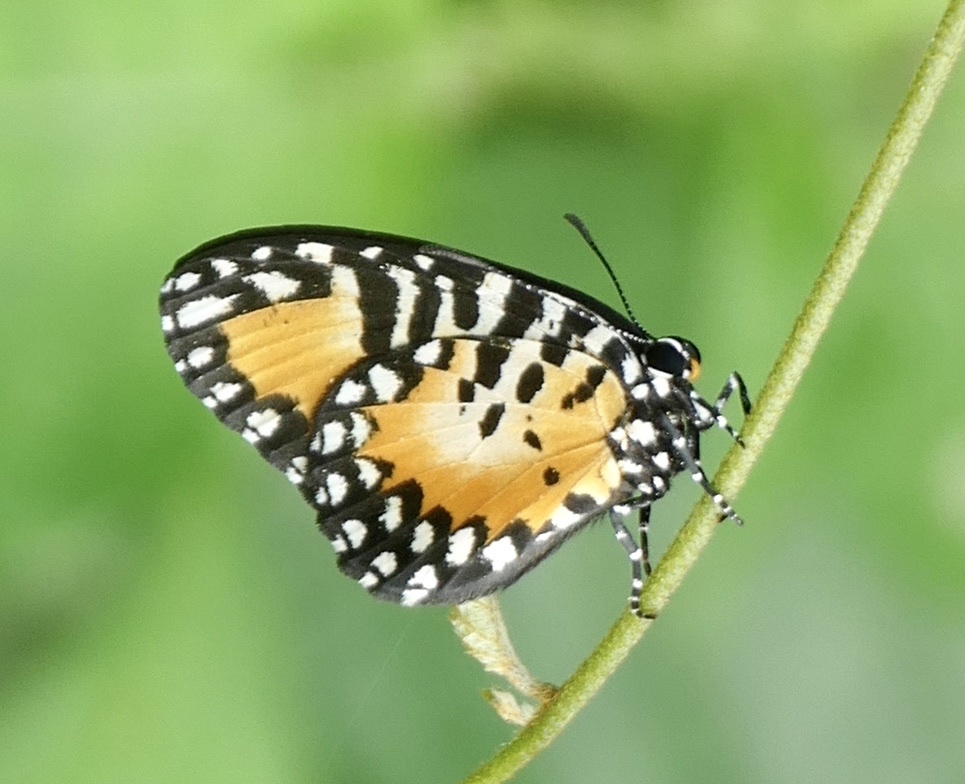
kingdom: Animalia
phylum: Arthropoda
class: Insecta
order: Lepidoptera
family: Lycaenidae
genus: Telipna
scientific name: Telipna semirufa
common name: Western telipna
